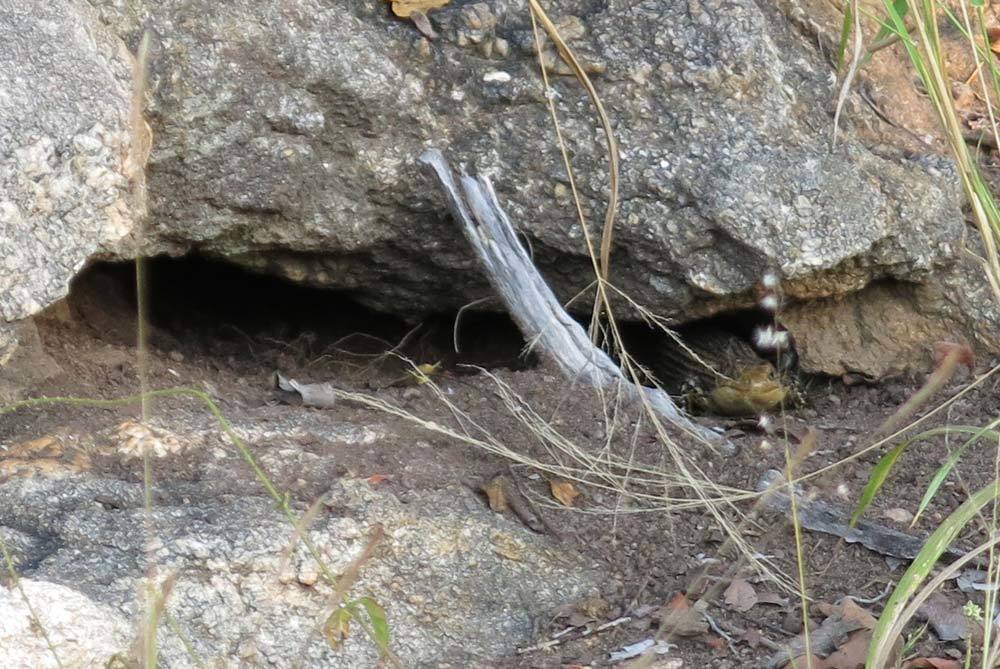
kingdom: Animalia
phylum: Chordata
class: Squamata
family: Gerrhosauridae
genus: Broadleysaurus
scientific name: Broadleysaurus major
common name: Rough-scaled plated lizard
